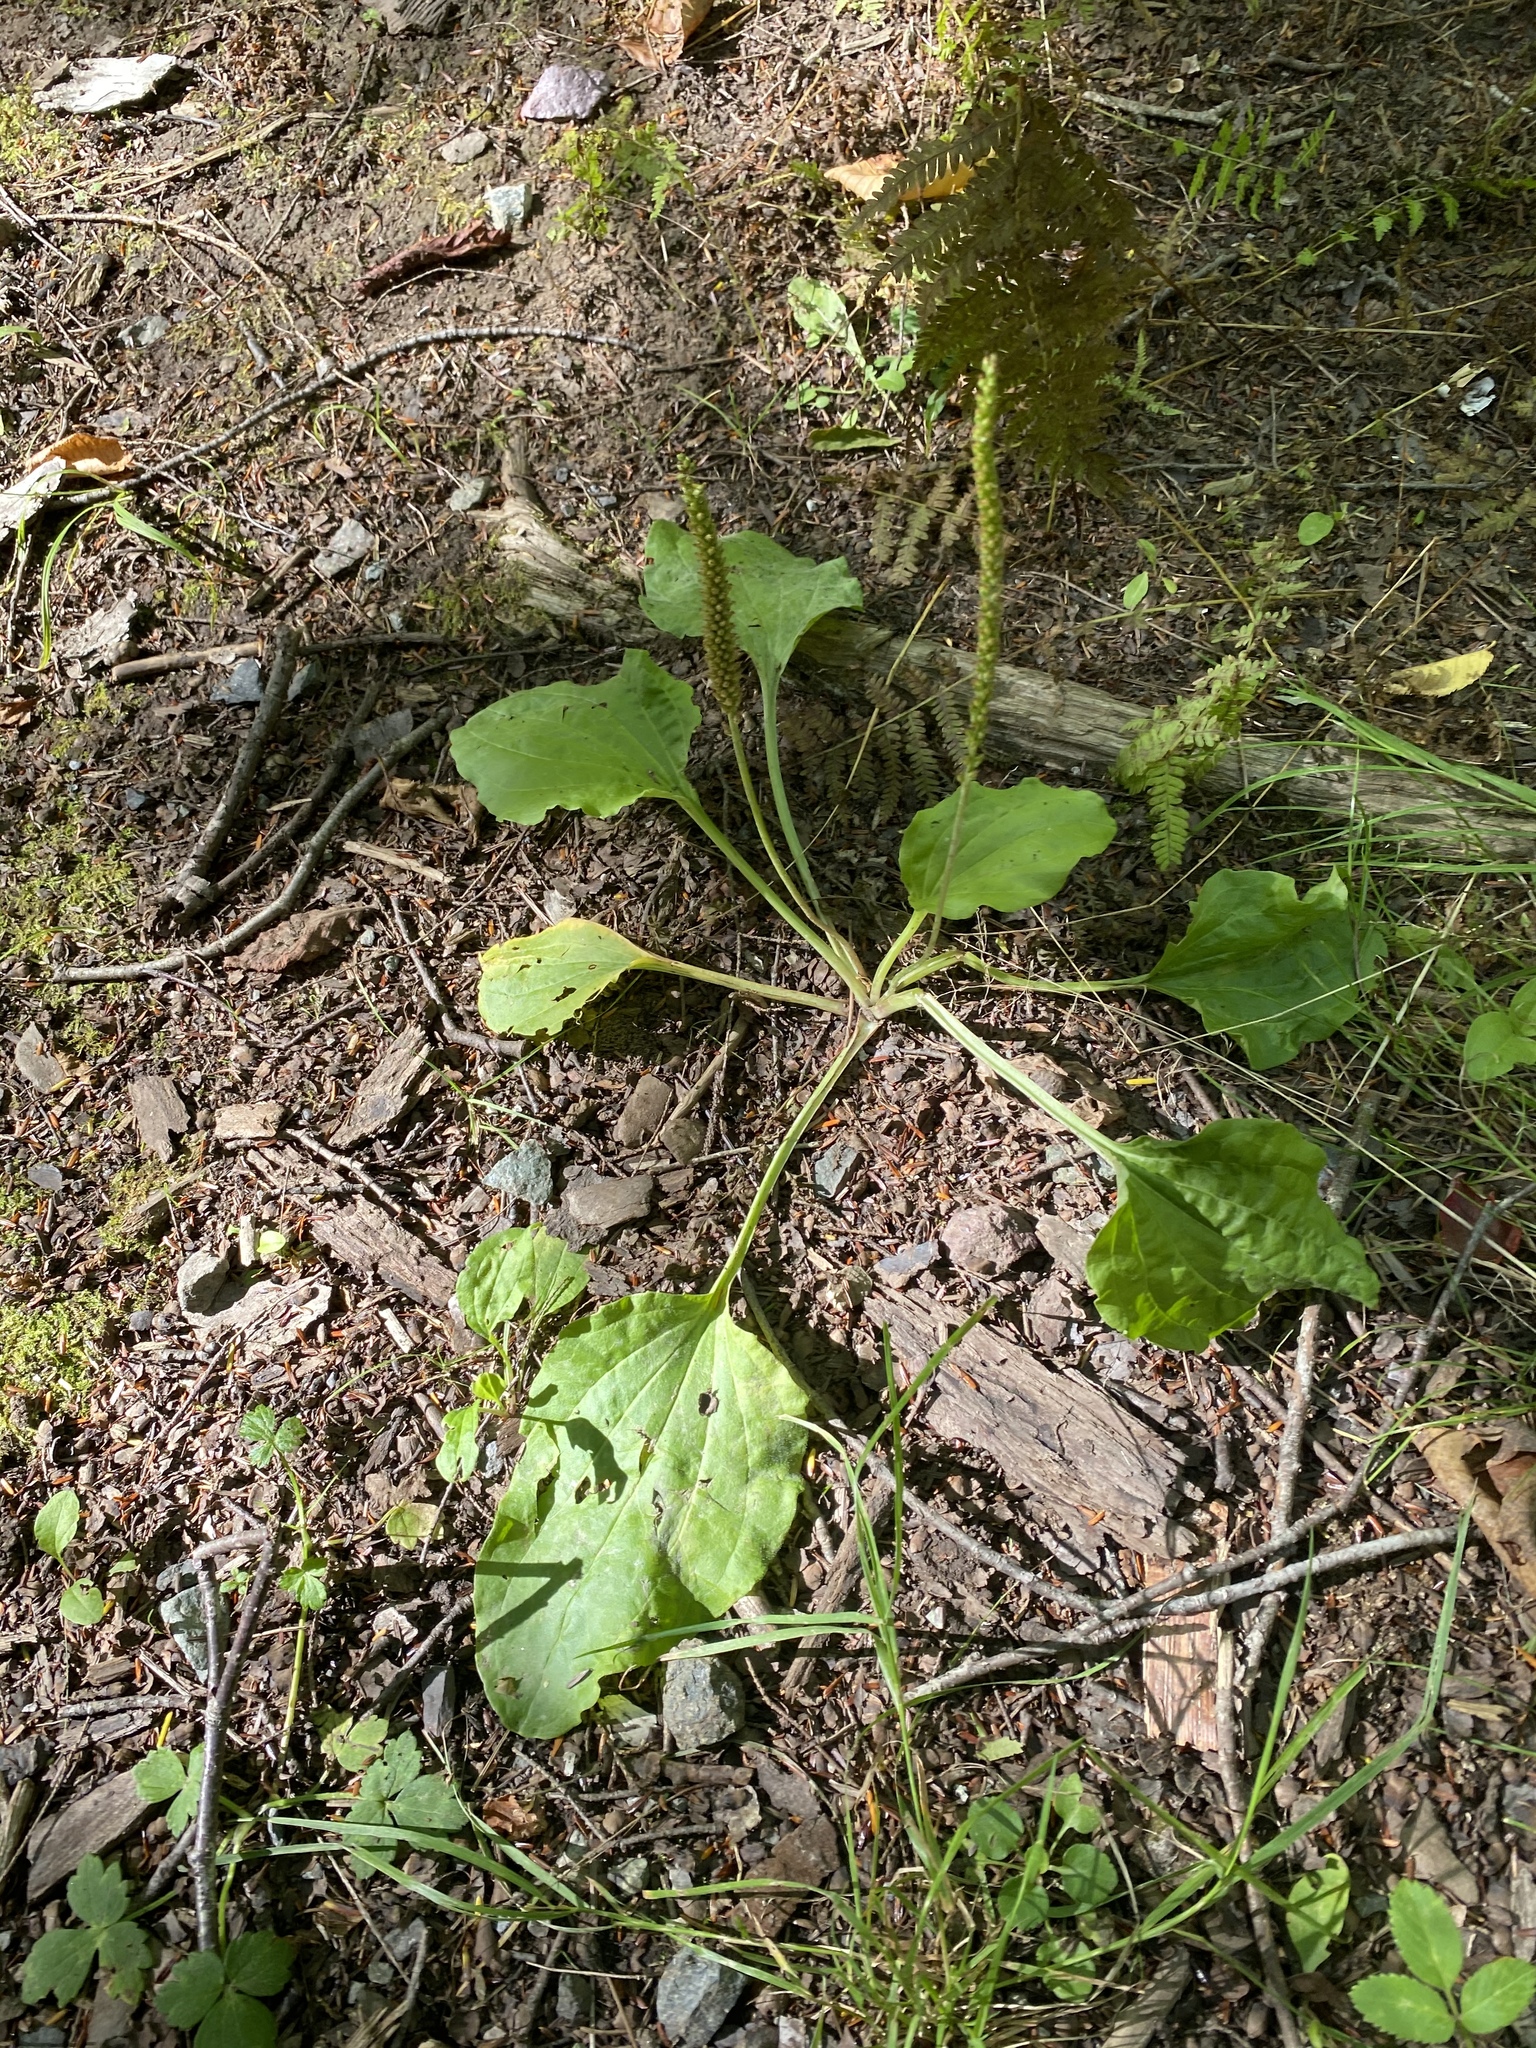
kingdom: Plantae
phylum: Tracheophyta
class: Magnoliopsida
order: Lamiales
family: Plantaginaceae
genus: Plantago
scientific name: Plantago major
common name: Common plantain
